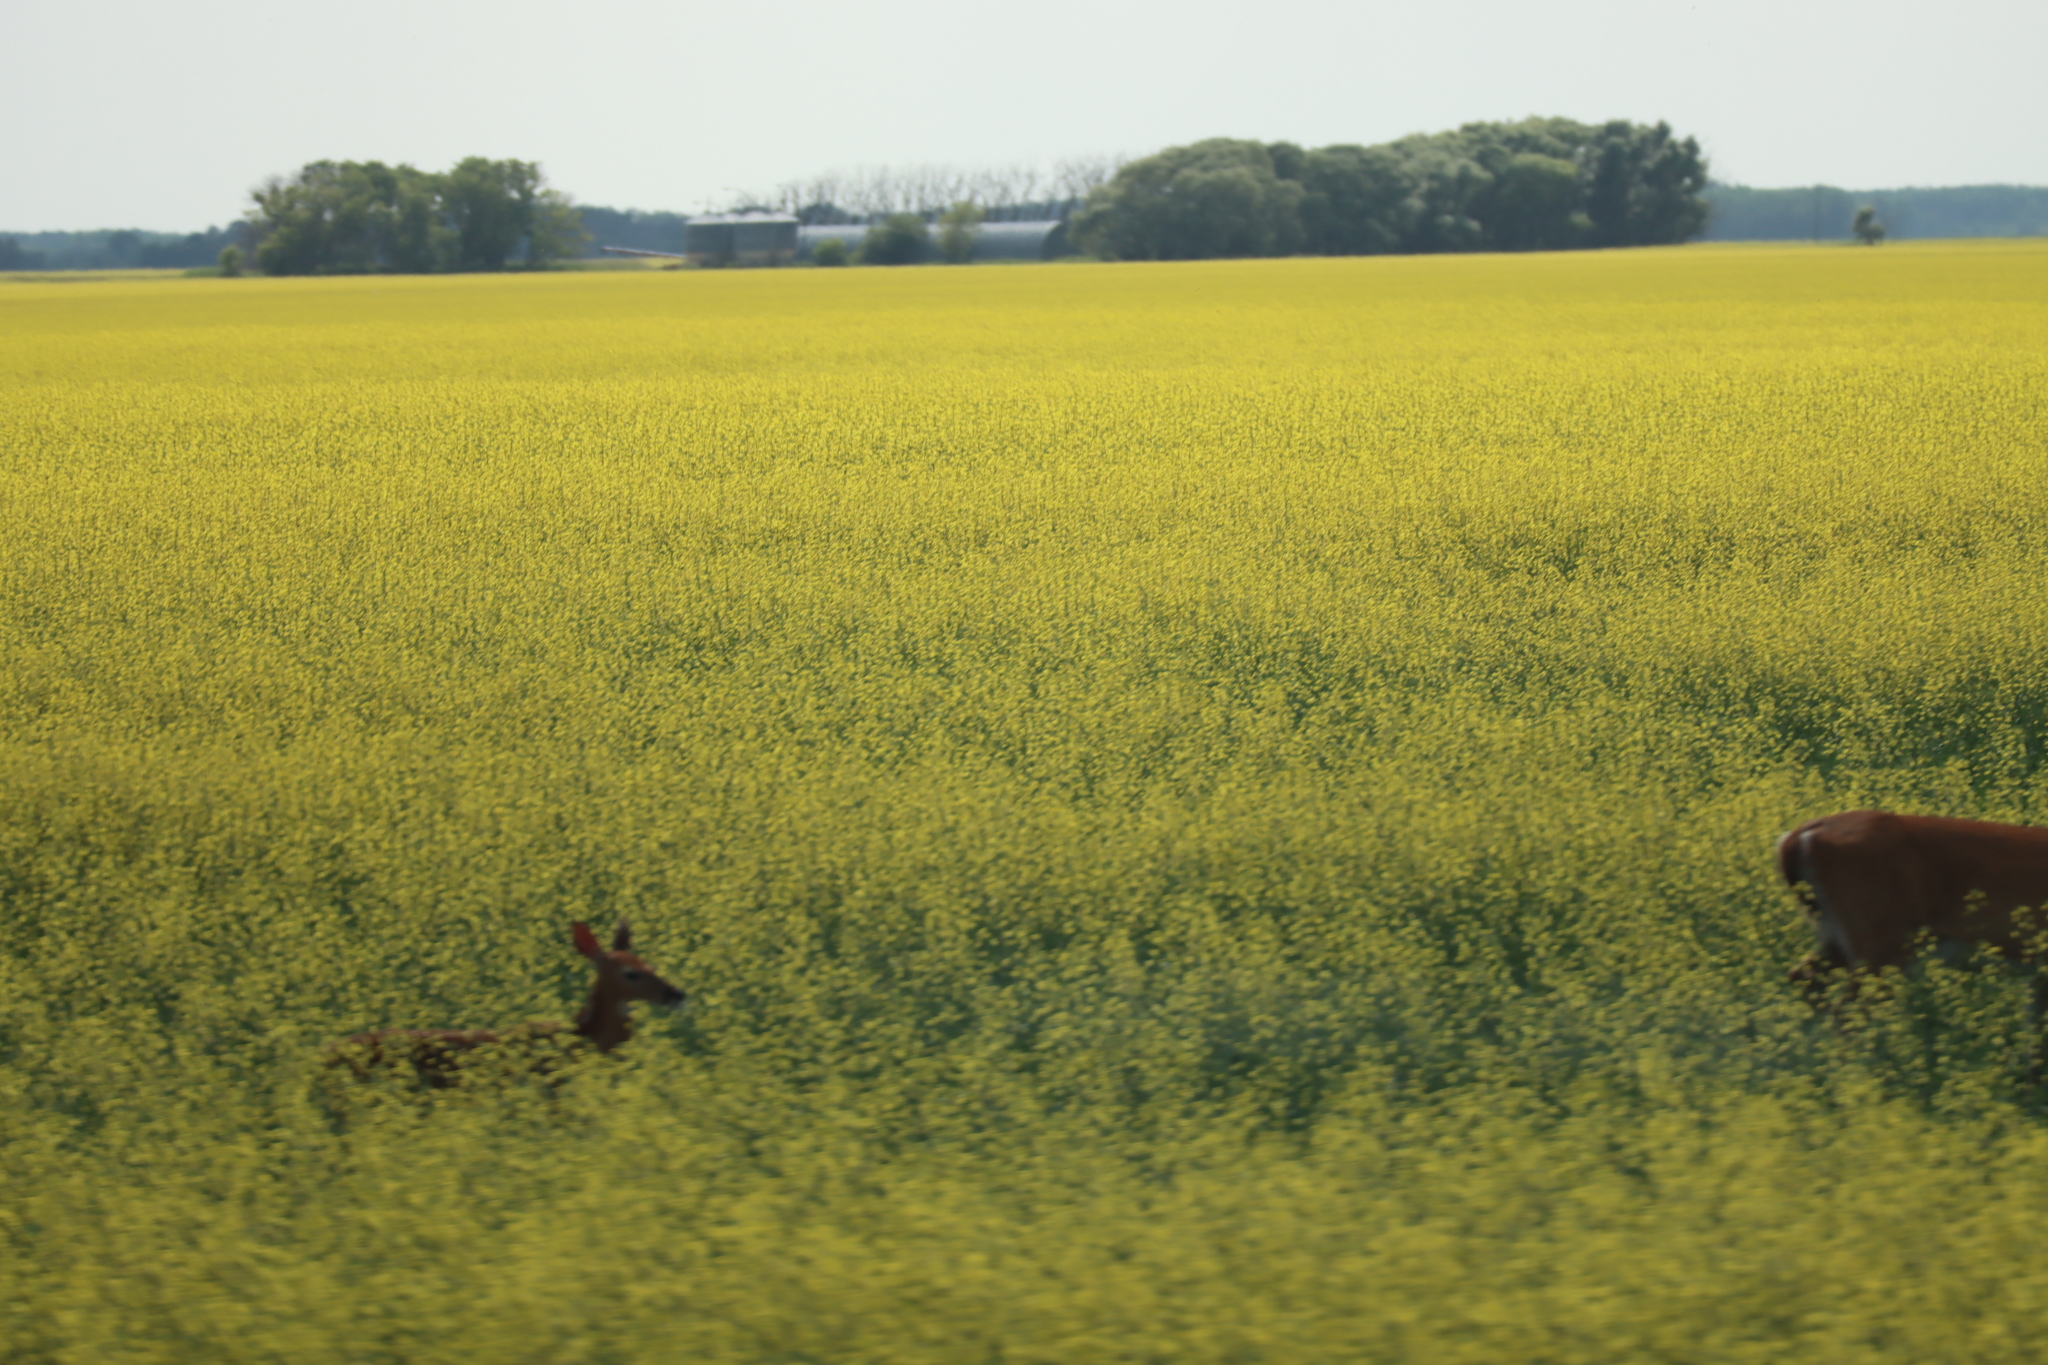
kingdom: Animalia
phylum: Chordata
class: Mammalia
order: Artiodactyla
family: Cervidae
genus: Odocoileus
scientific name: Odocoileus virginianus
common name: White-tailed deer
